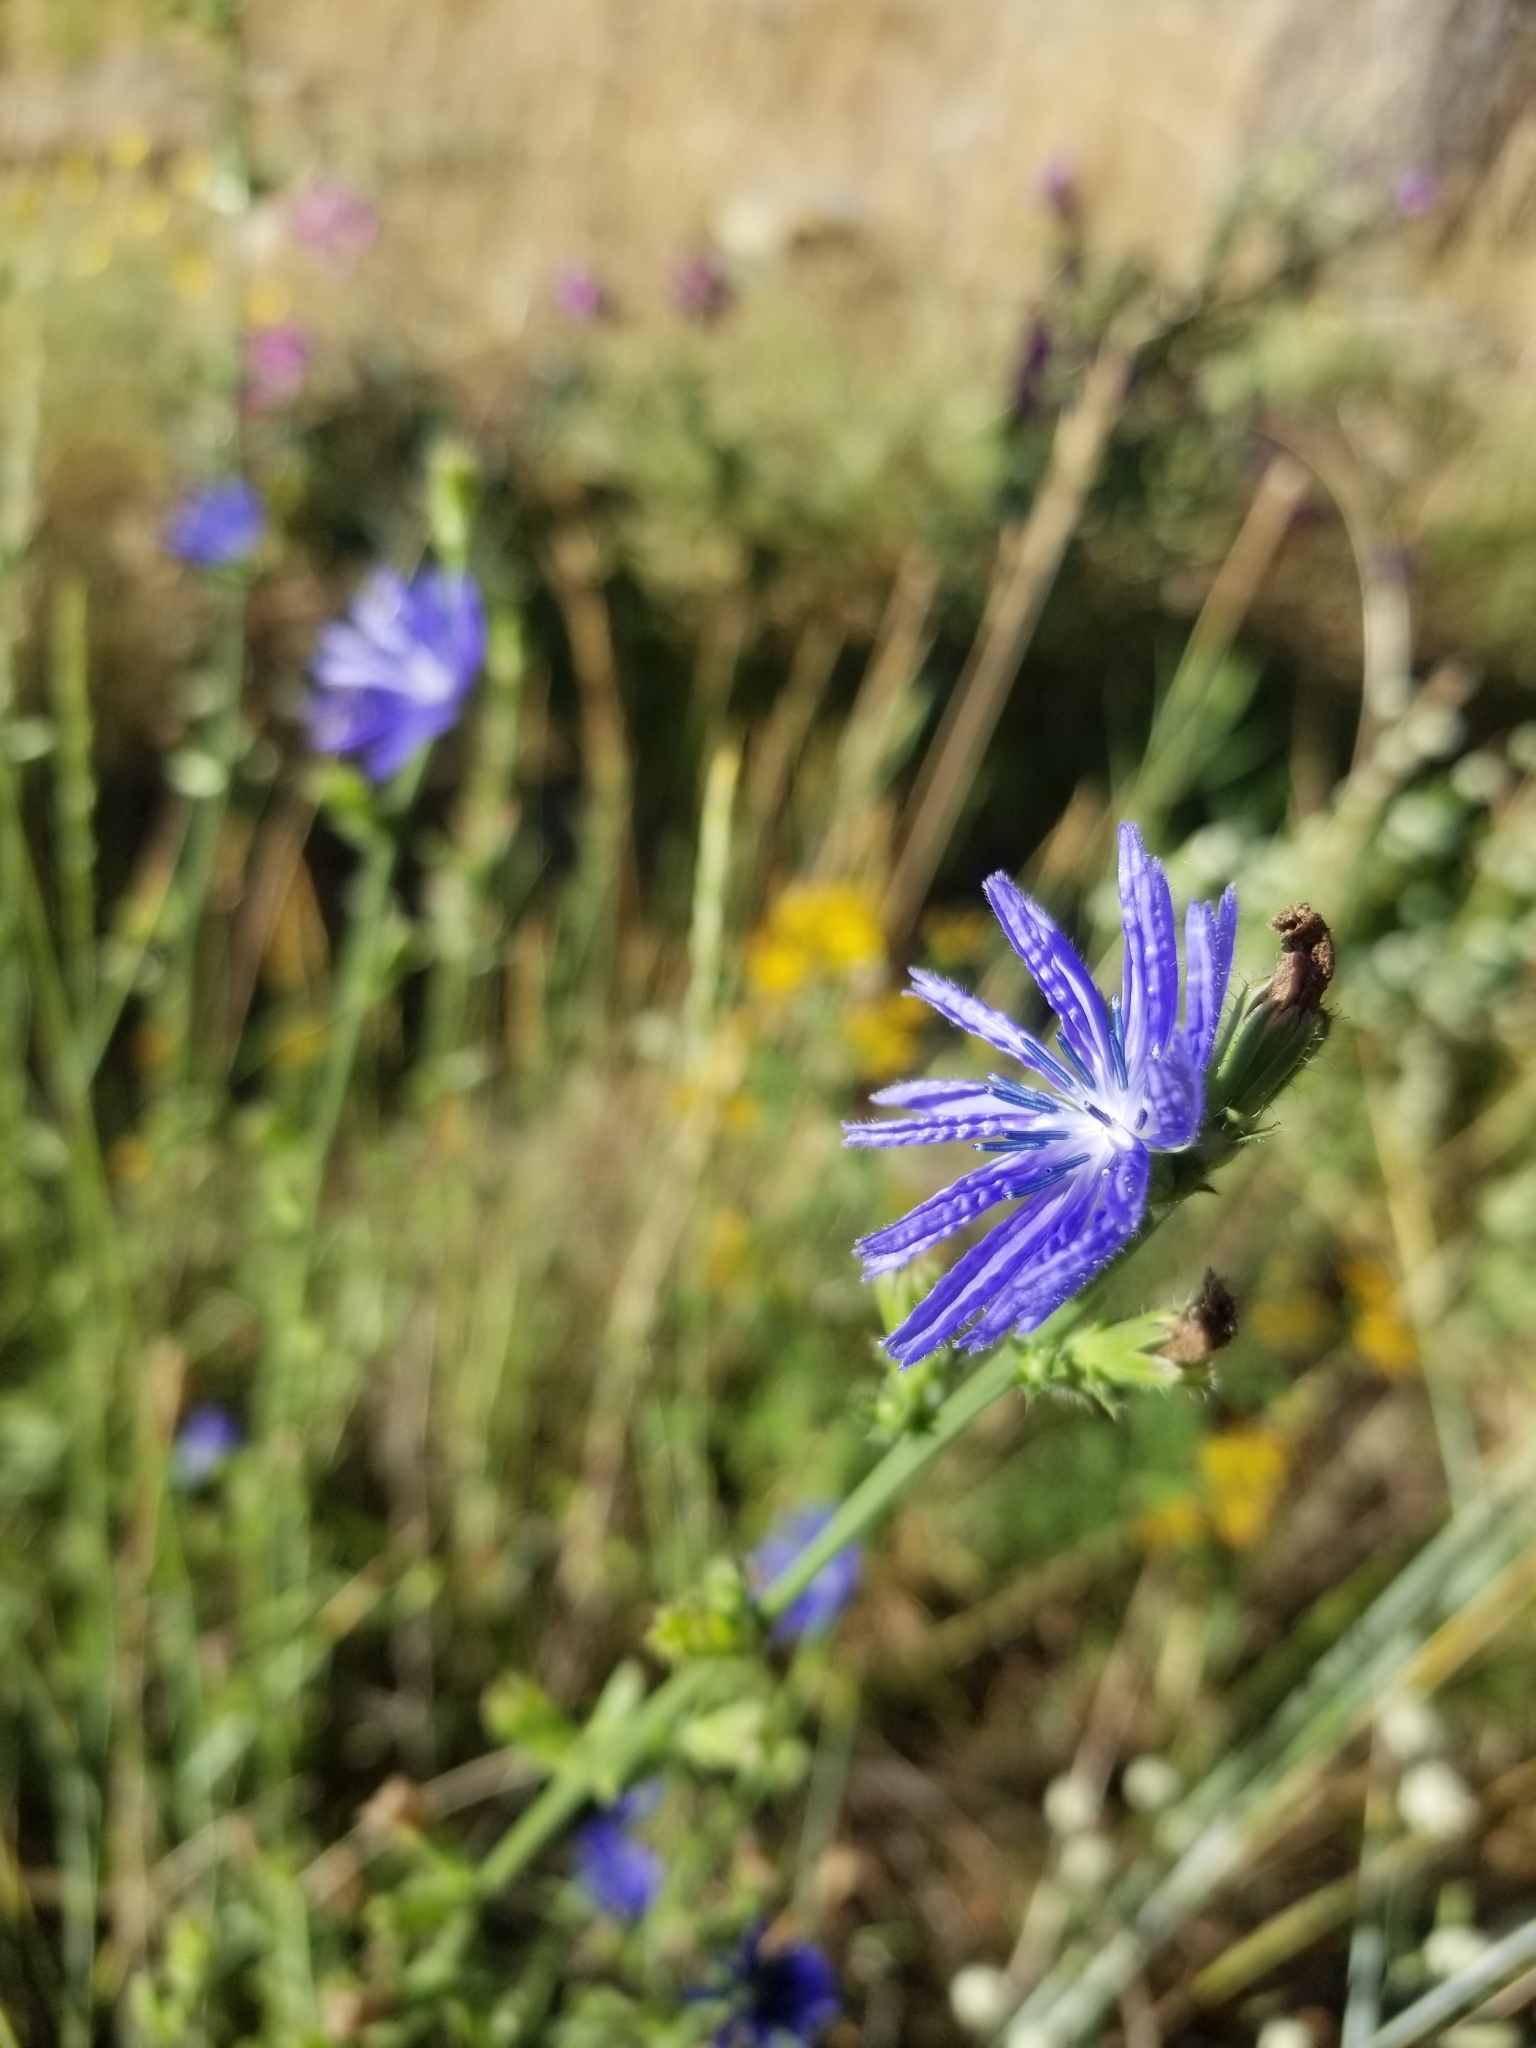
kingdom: Plantae
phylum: Tracheophyta
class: Magnoliopsida
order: Asterales
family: Asteraceae
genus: Cichorium
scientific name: Cichorium intybus
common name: Chicory
